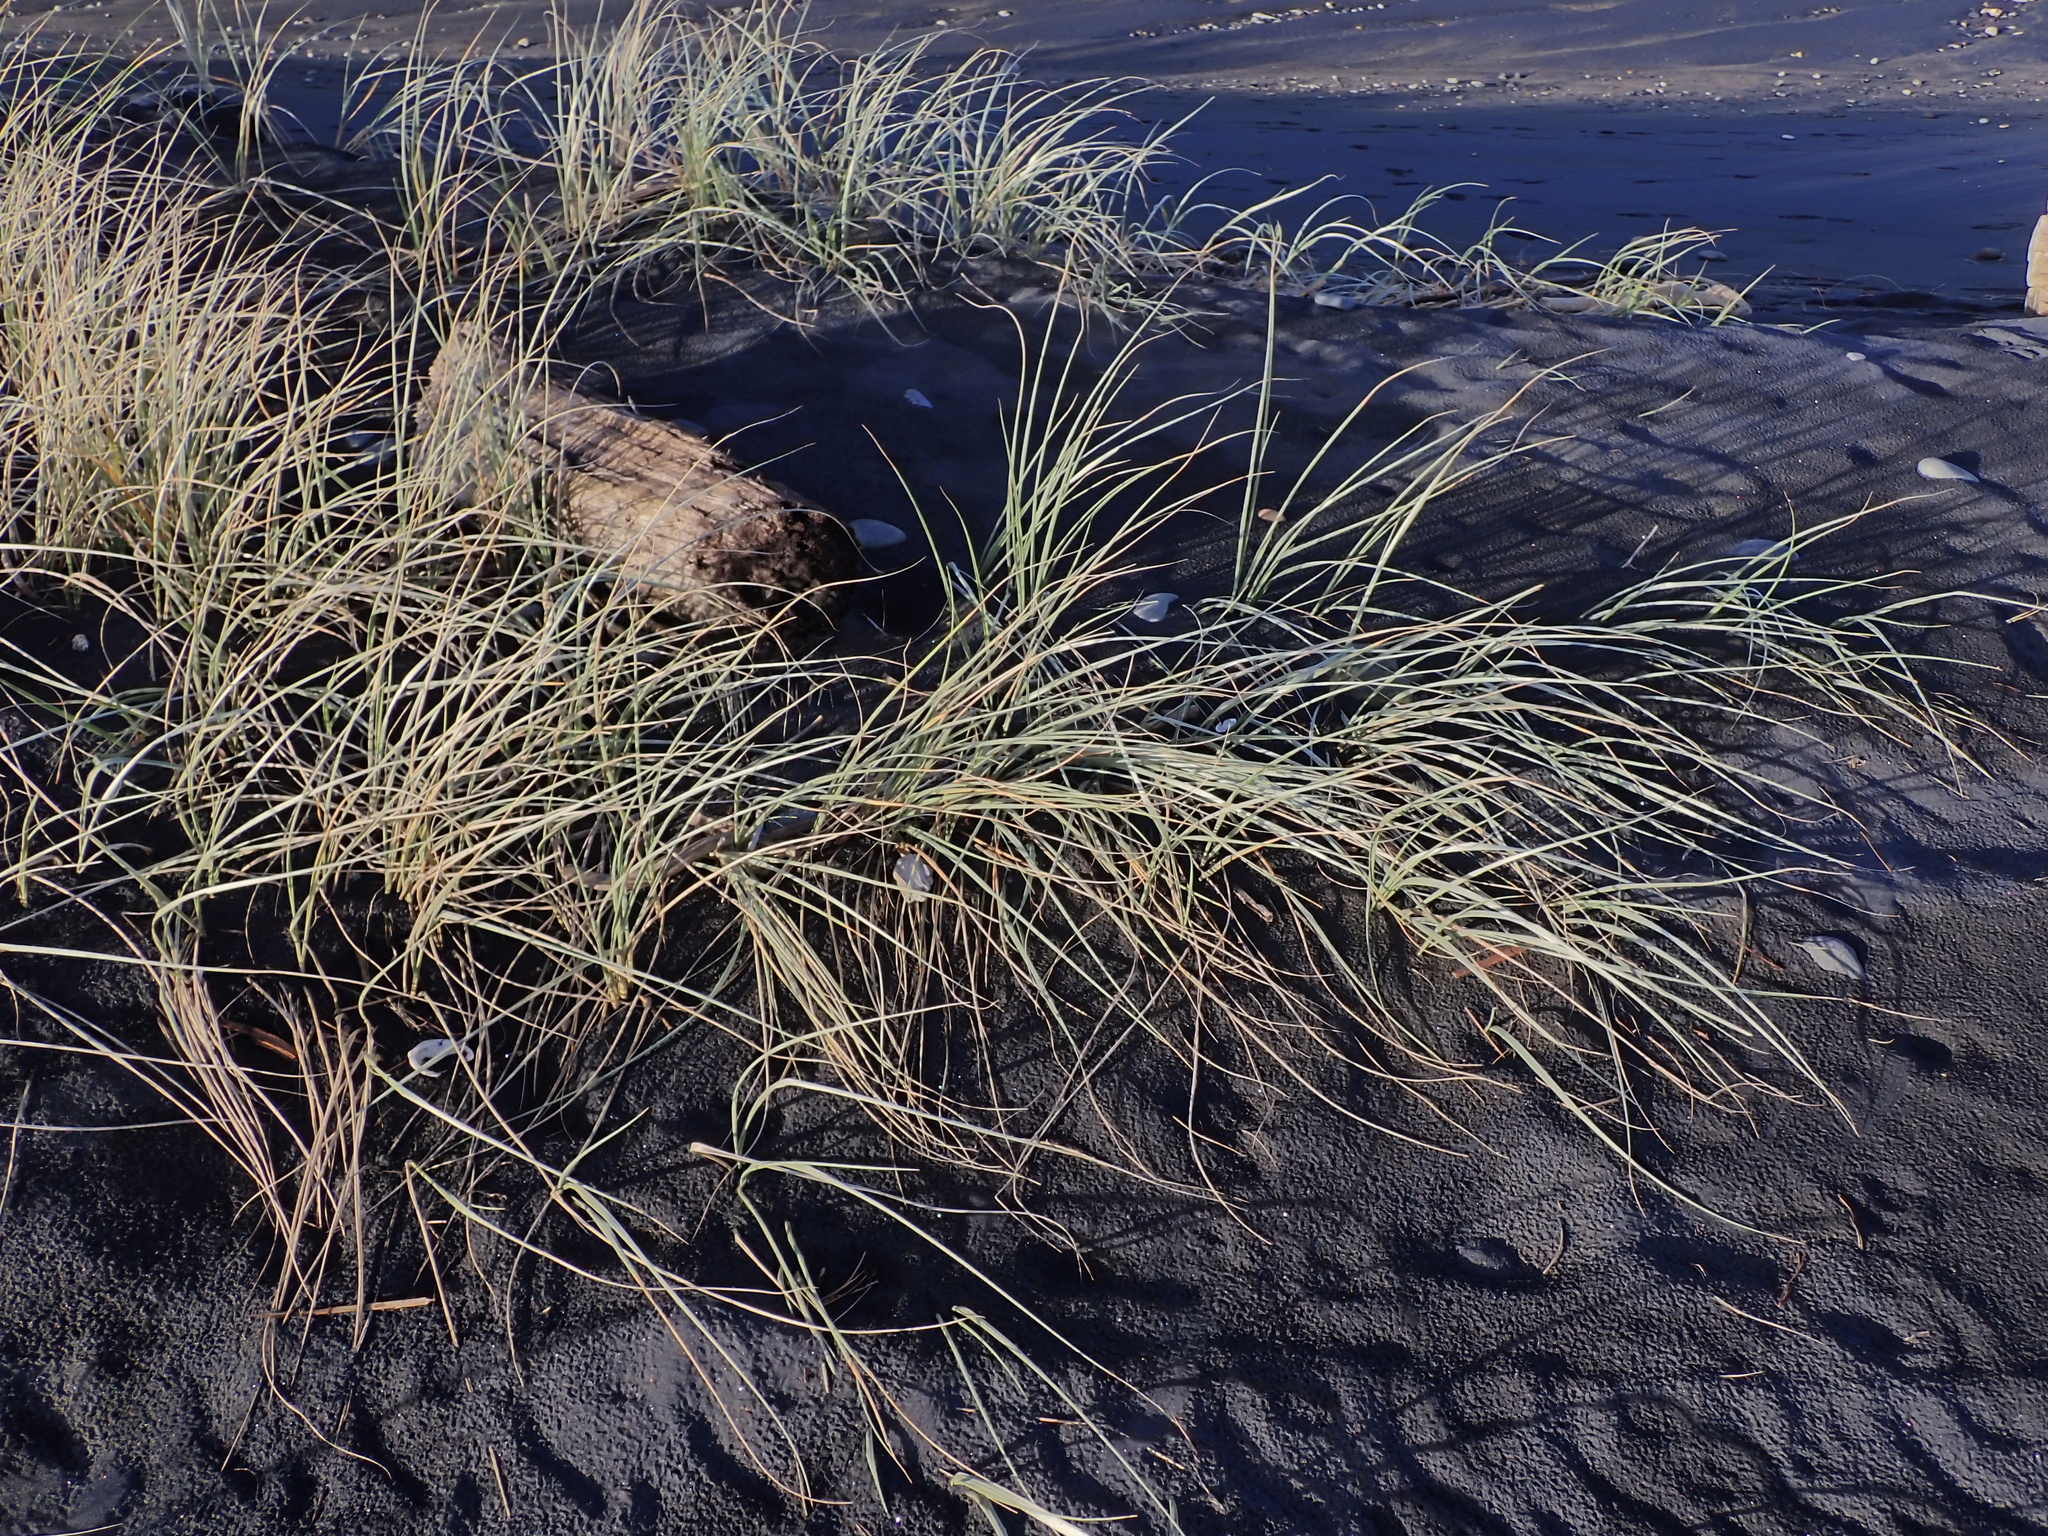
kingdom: Plantae
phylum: Tracheophyta
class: Liliopsida
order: Poales
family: Poaceae
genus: Spinifex
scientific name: Spinifex sericeus
